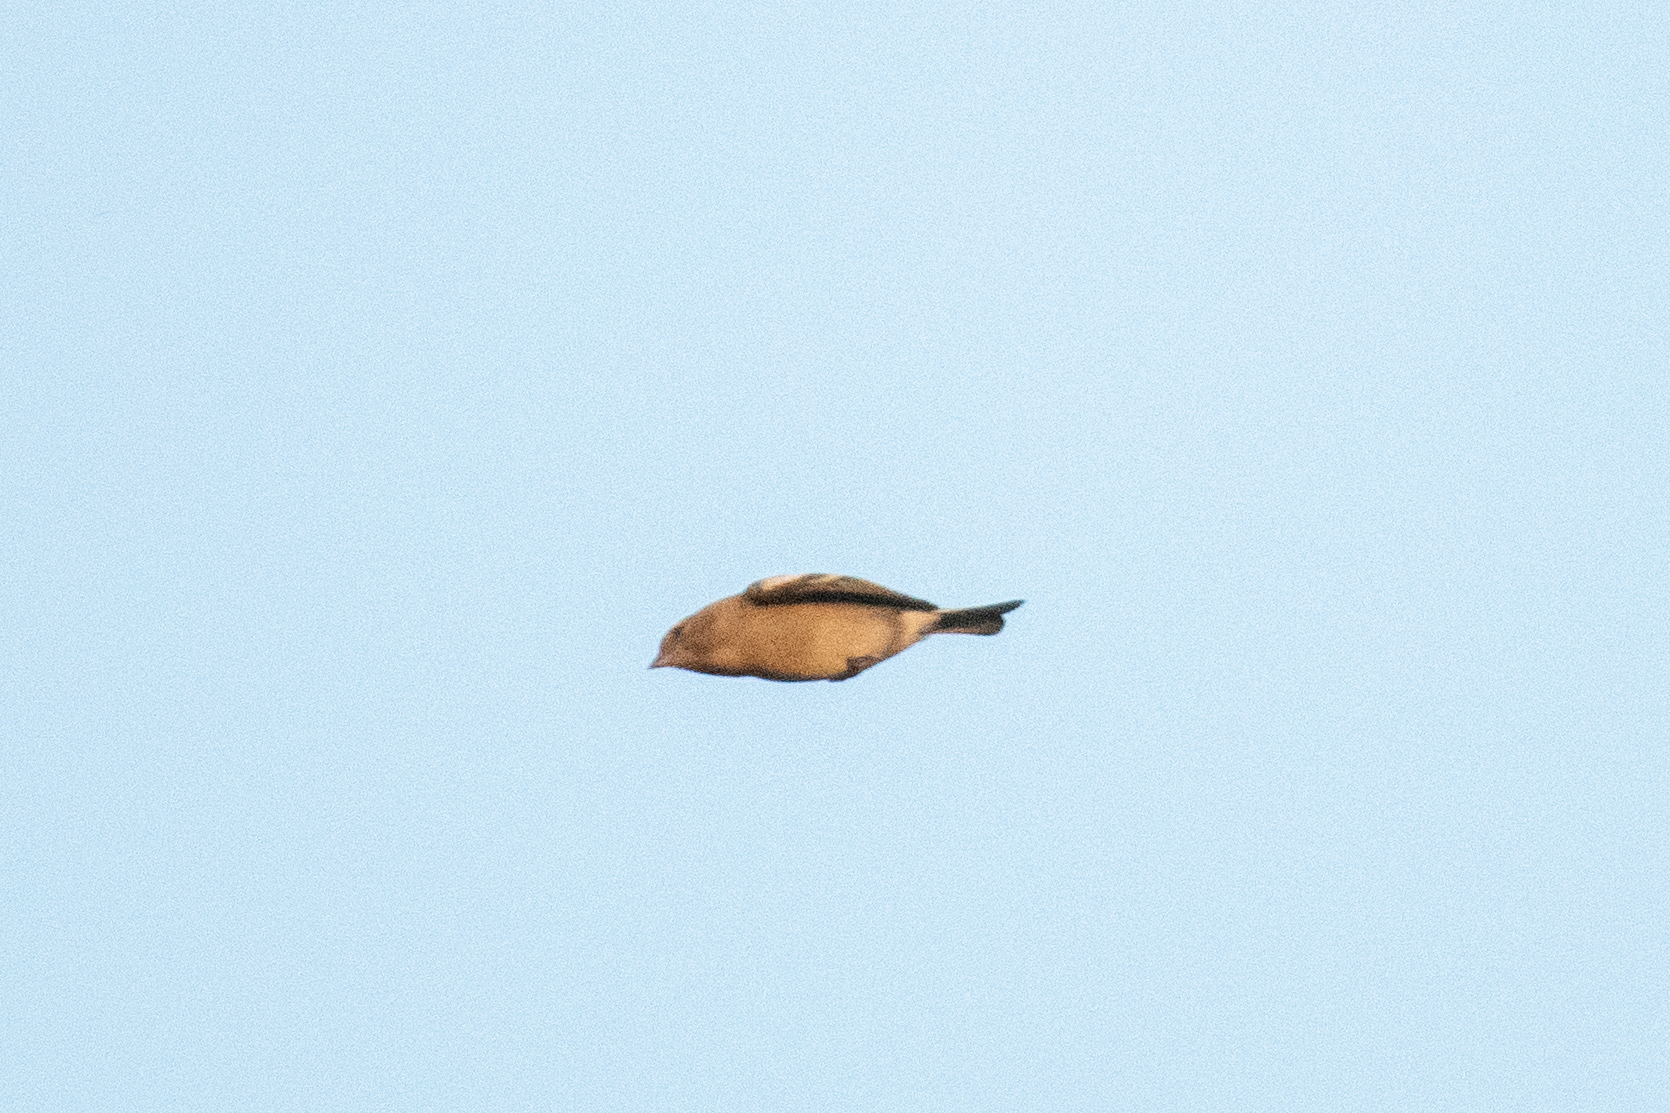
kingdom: Animalia
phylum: Chordata
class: Aves
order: Passeriformes
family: Fringillidae
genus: Fringilla
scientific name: Fringilla coelebs
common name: Common chaffinch
